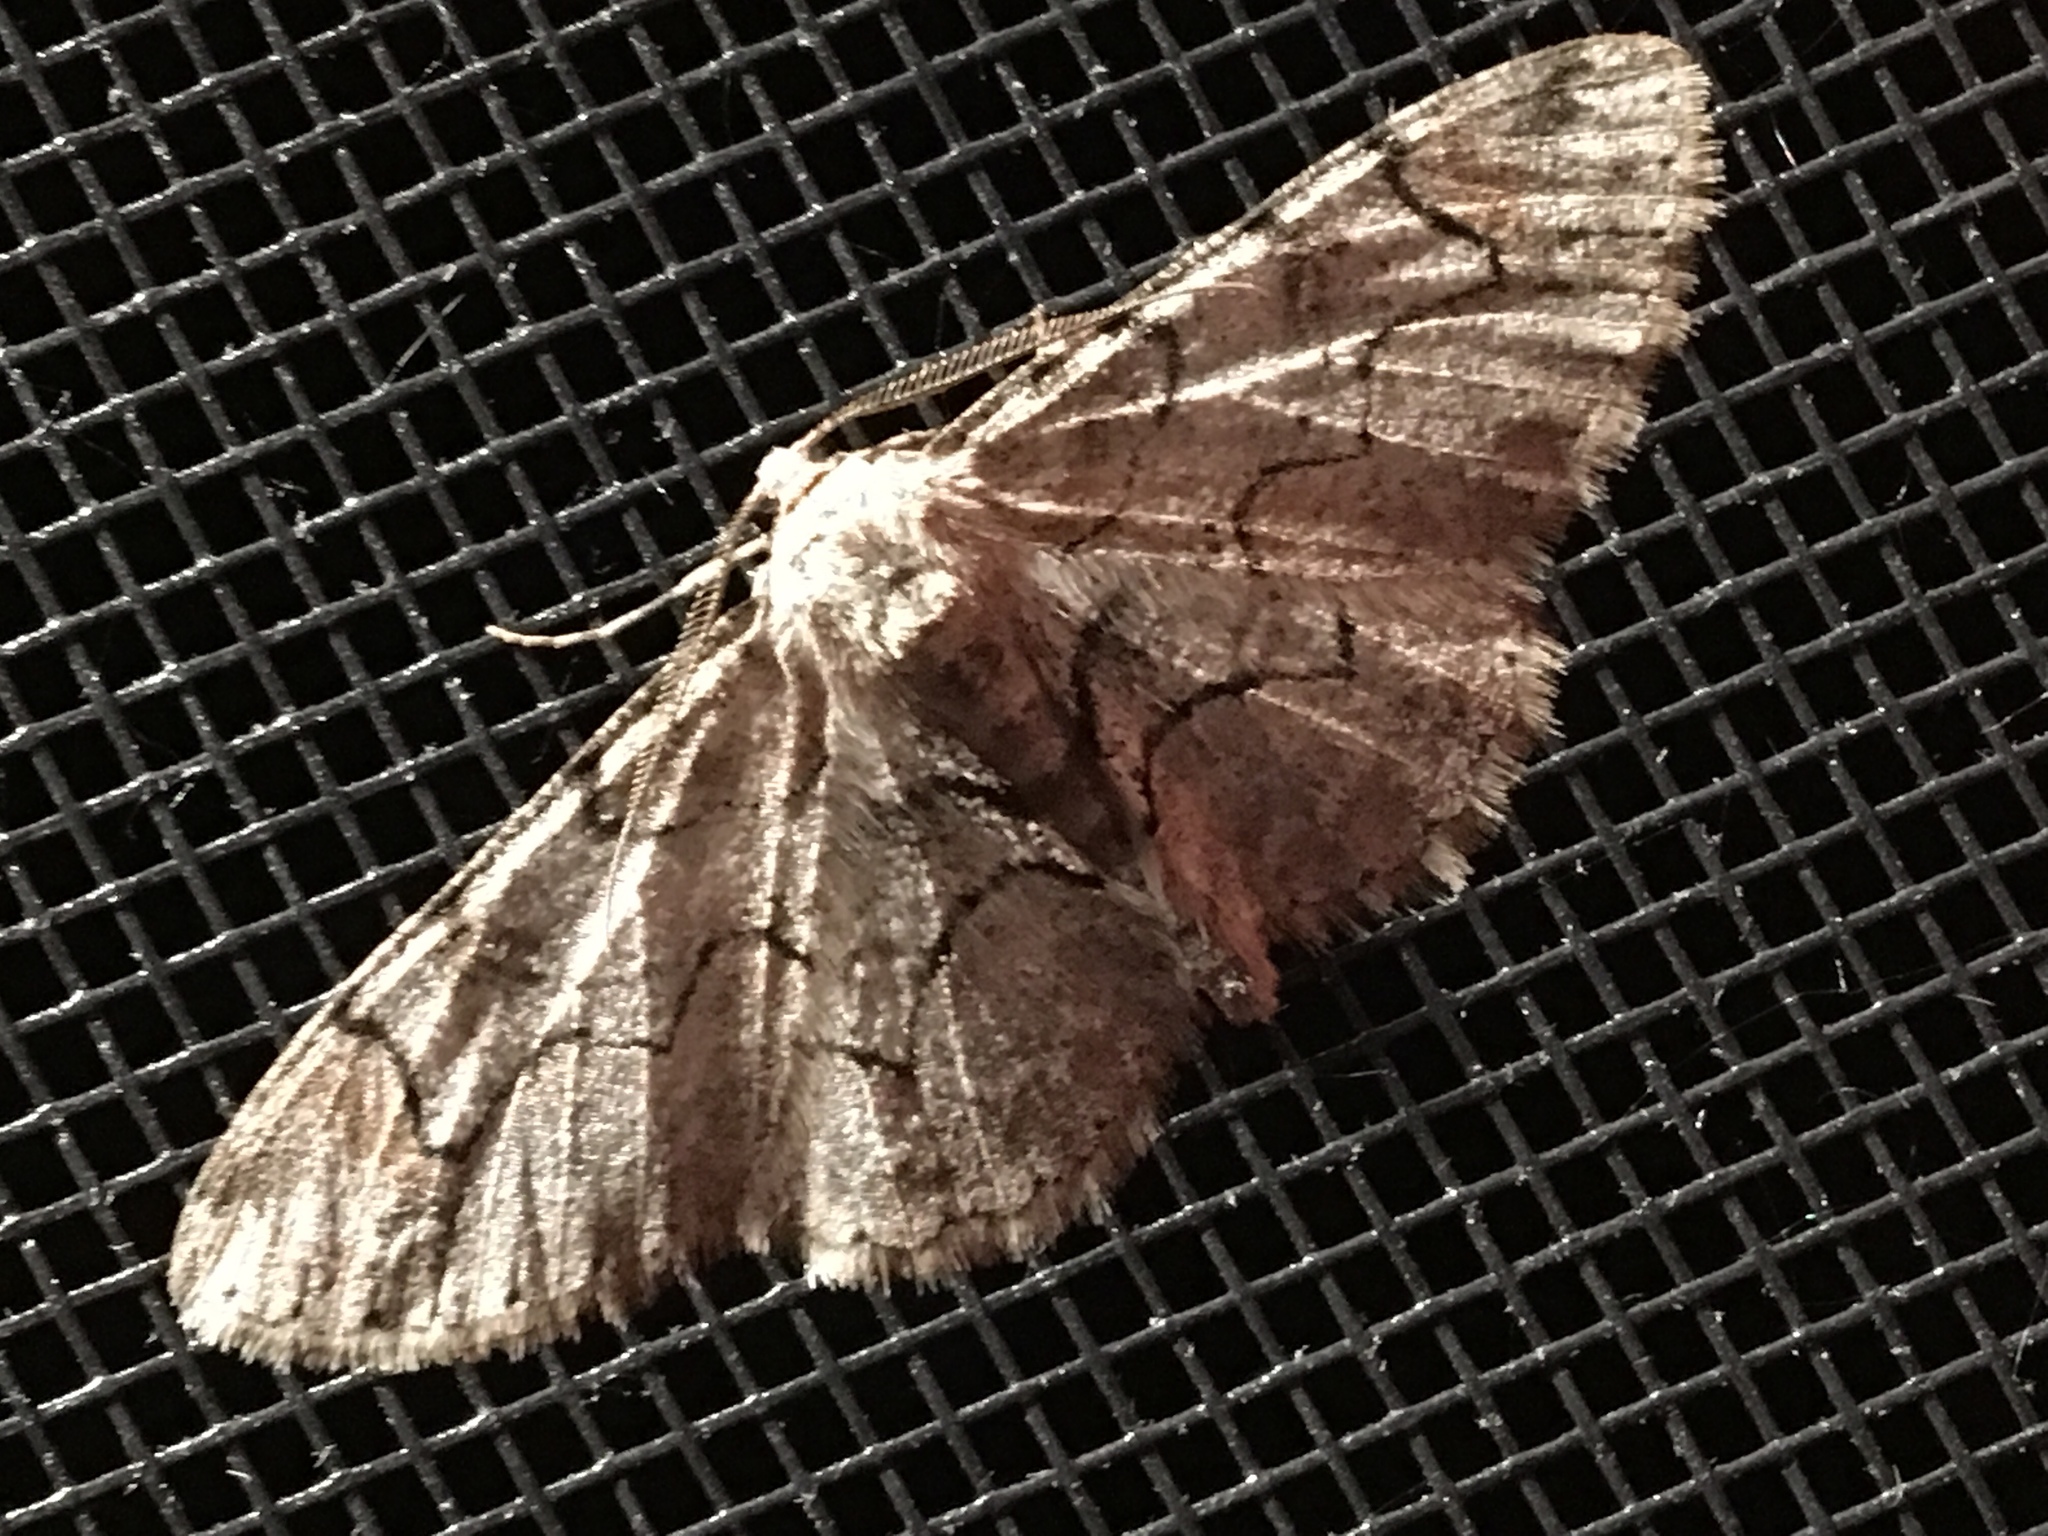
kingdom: Animalia
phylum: Arthropoda
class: Insecta
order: Lepidoptera
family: Geometridae
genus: Iridopsis
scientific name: Iridopsis larvaria
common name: Bent-line gray
